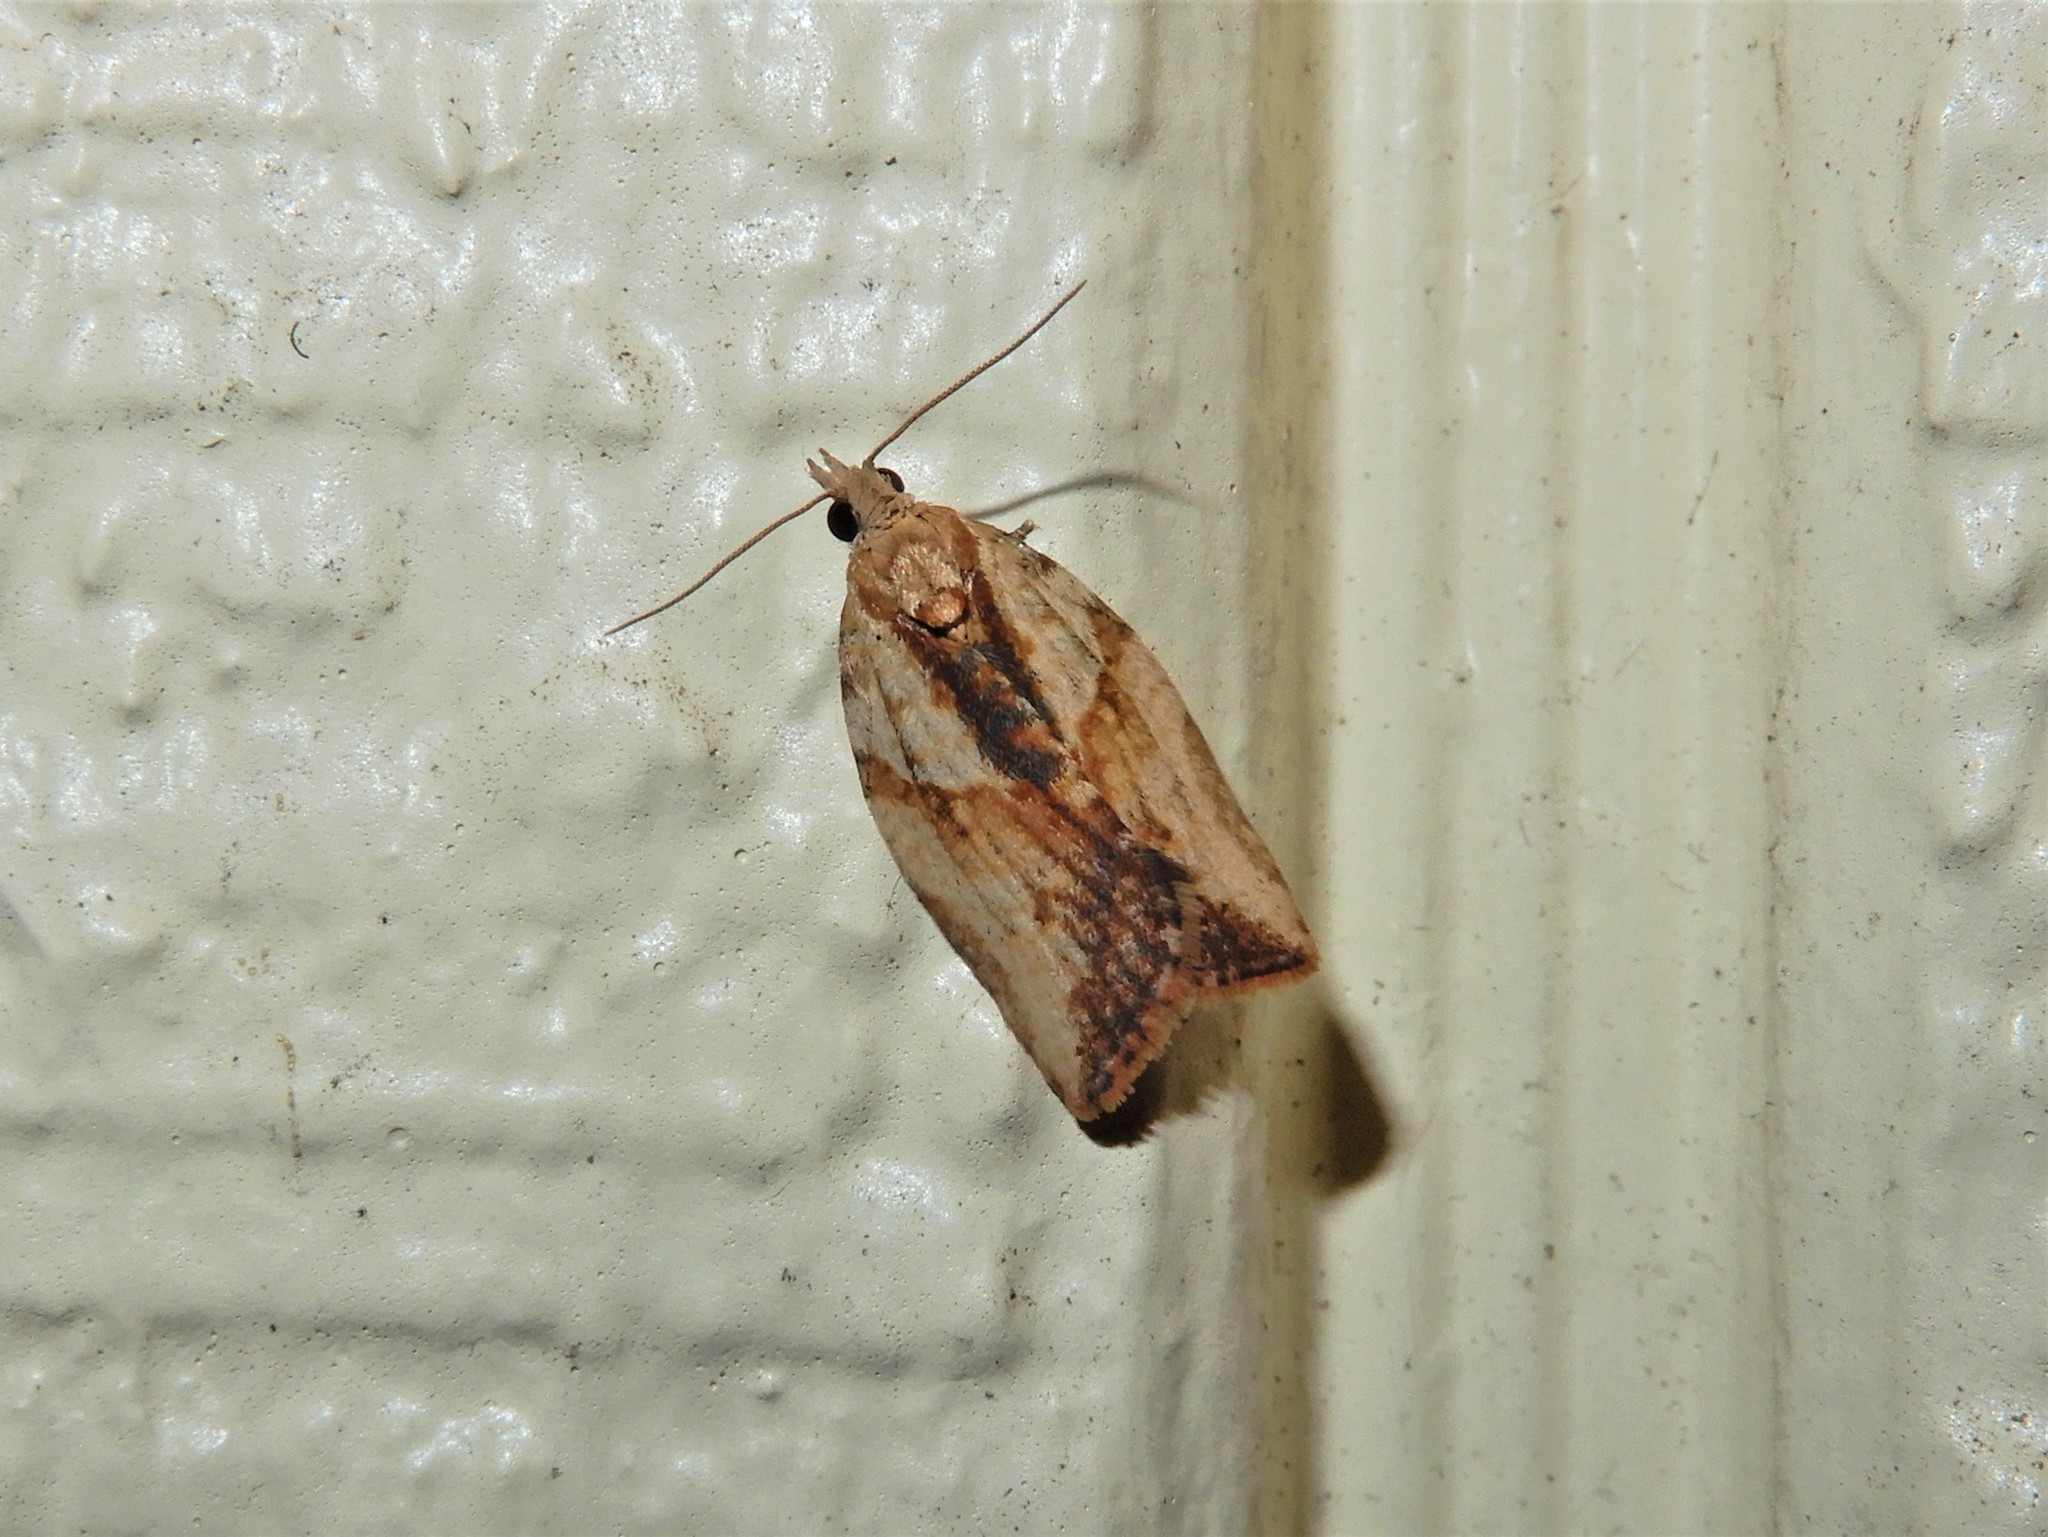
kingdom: Animalia
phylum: Arthropoda
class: Insecta
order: Lepidoptera
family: Tortricidae
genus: Epiphyas
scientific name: Epiphyas postvittana
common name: Light brown apple moth
